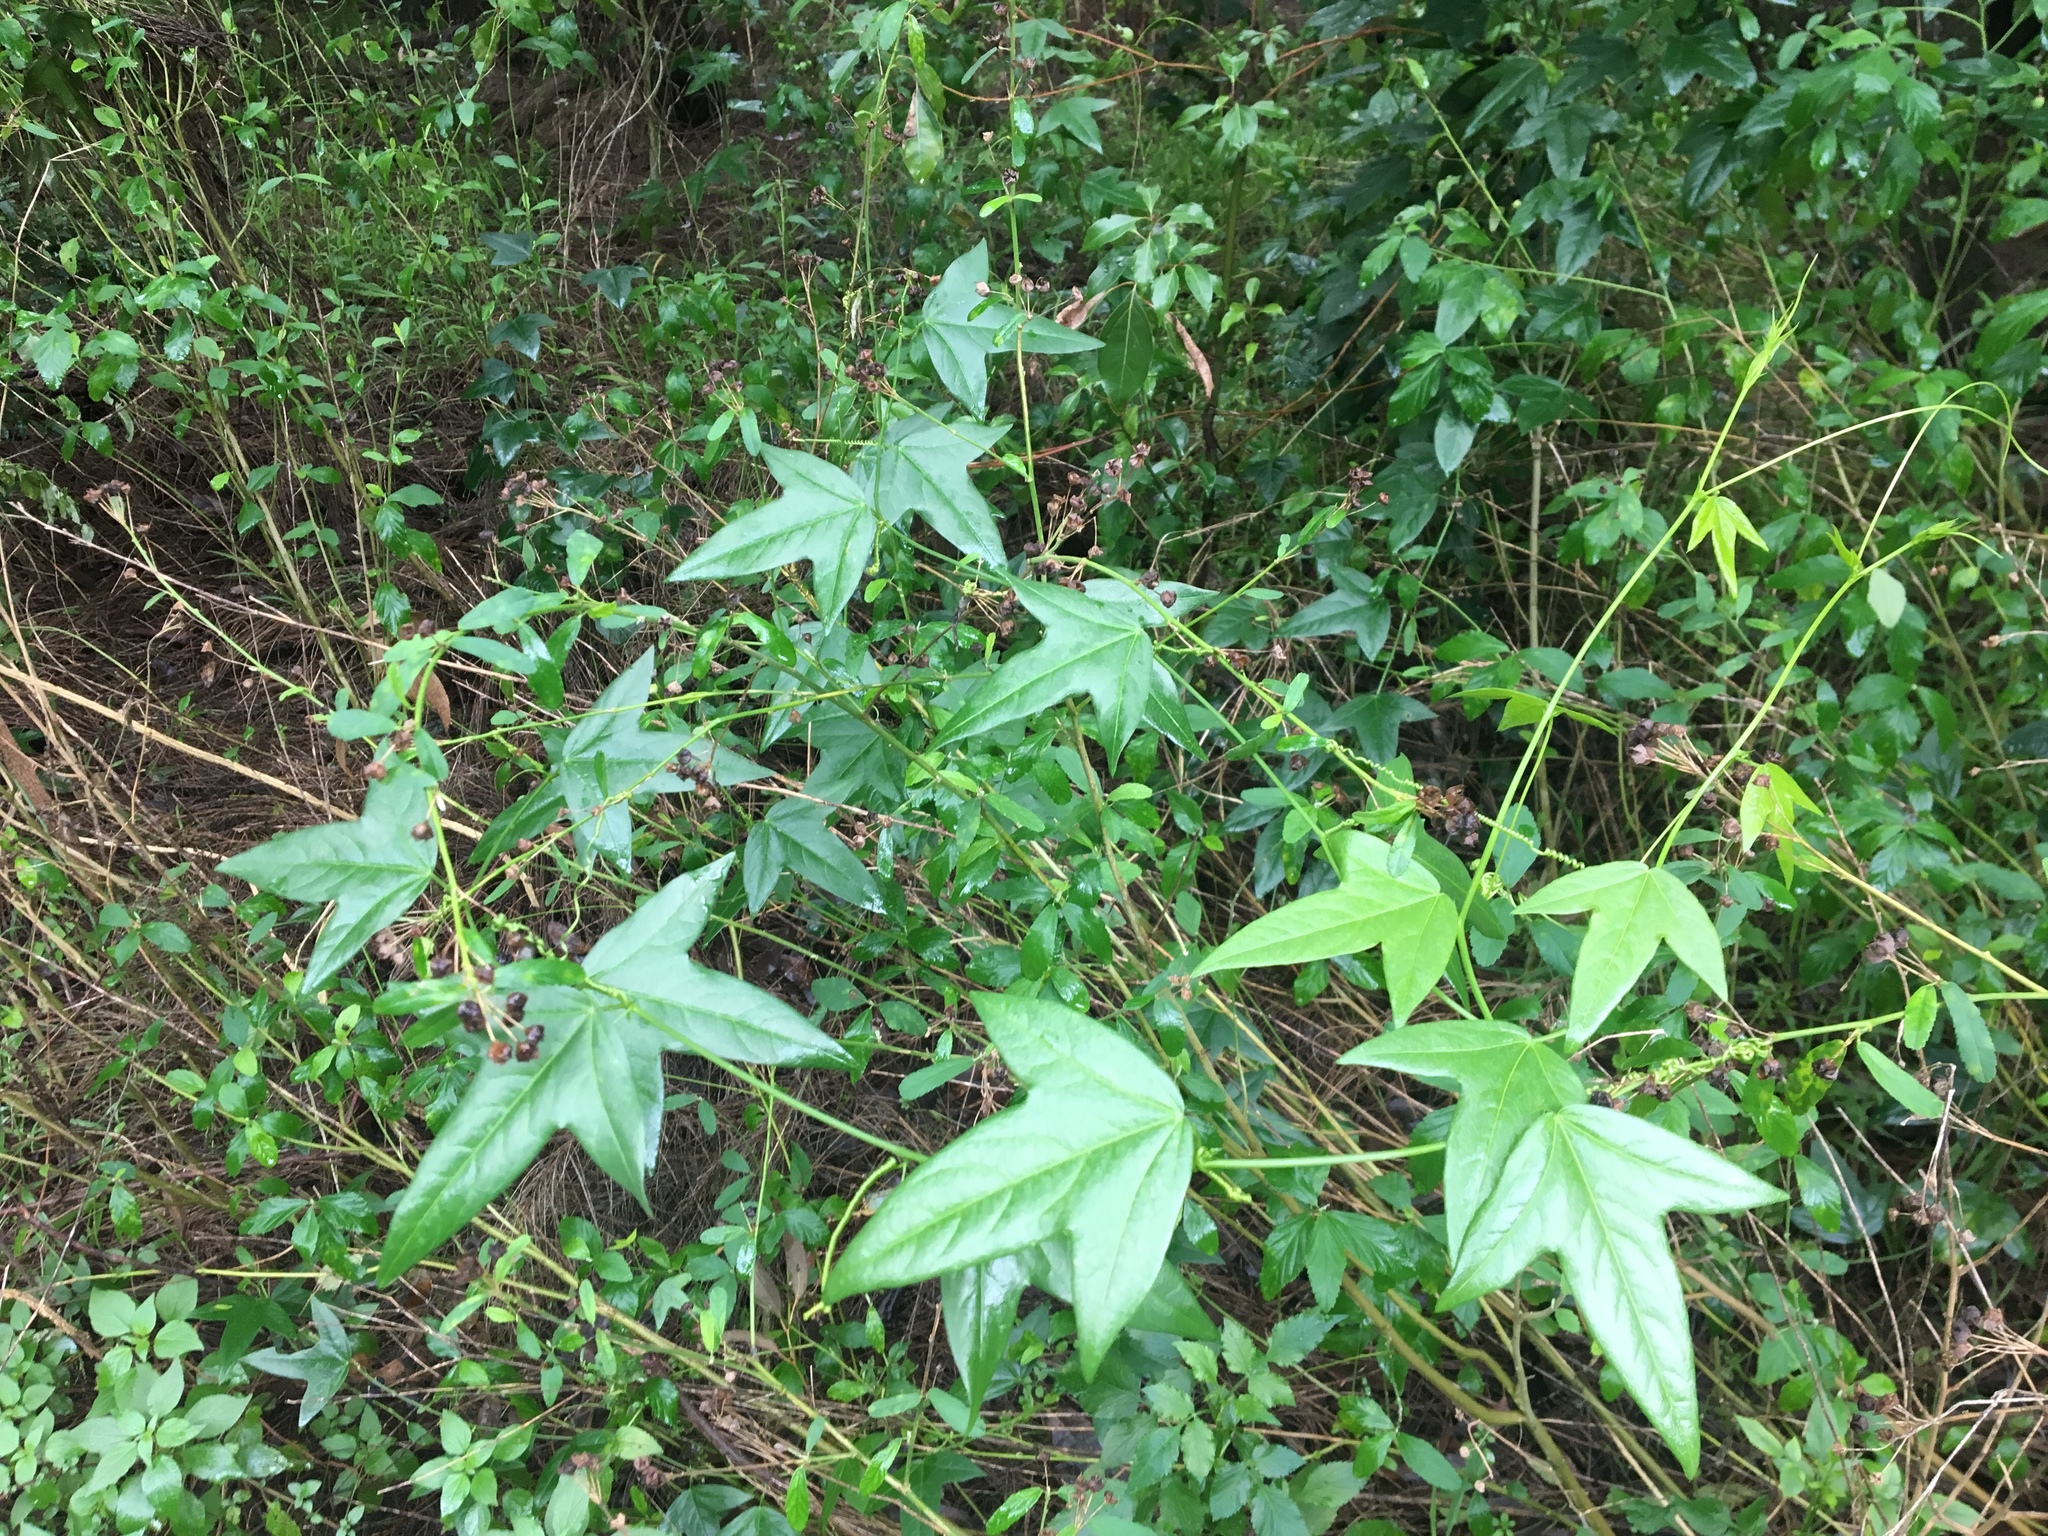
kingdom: Plantae
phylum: Tracheophyta
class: Magnoliopsida
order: Malpighiales
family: Passifloraceae
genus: Passiflora
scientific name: Passiflora suberosa
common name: Wild passionfruit
